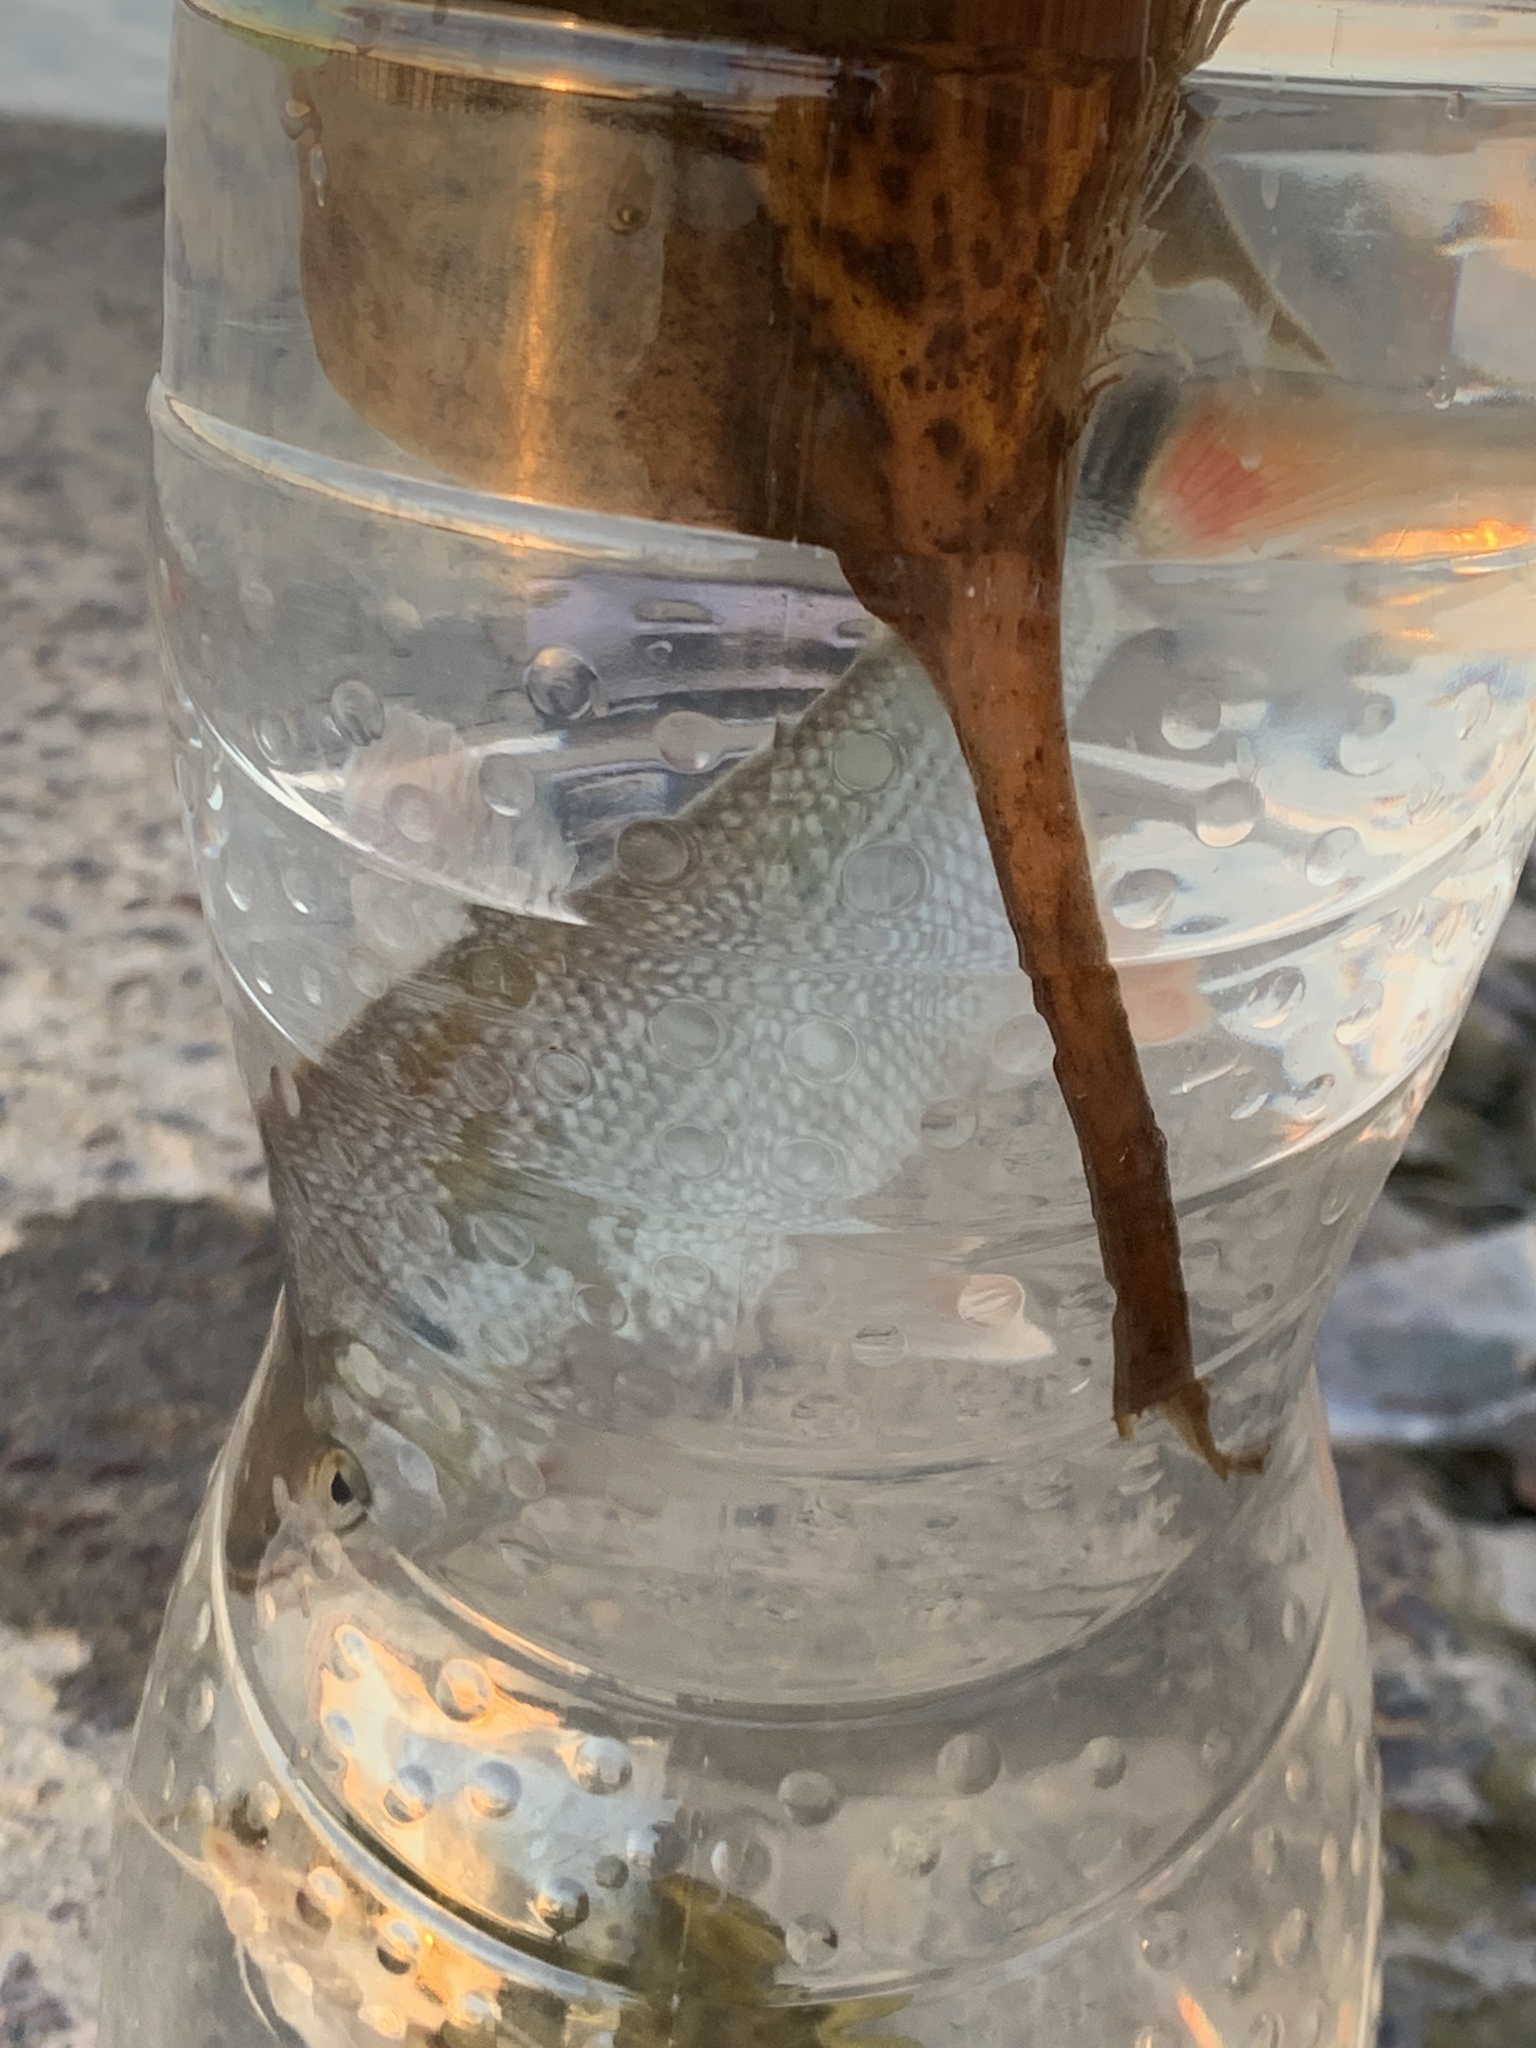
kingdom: Animalia
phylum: Chordata
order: Characiformes
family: Bryconidae
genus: Brycon
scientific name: Brycon orbignyanus
